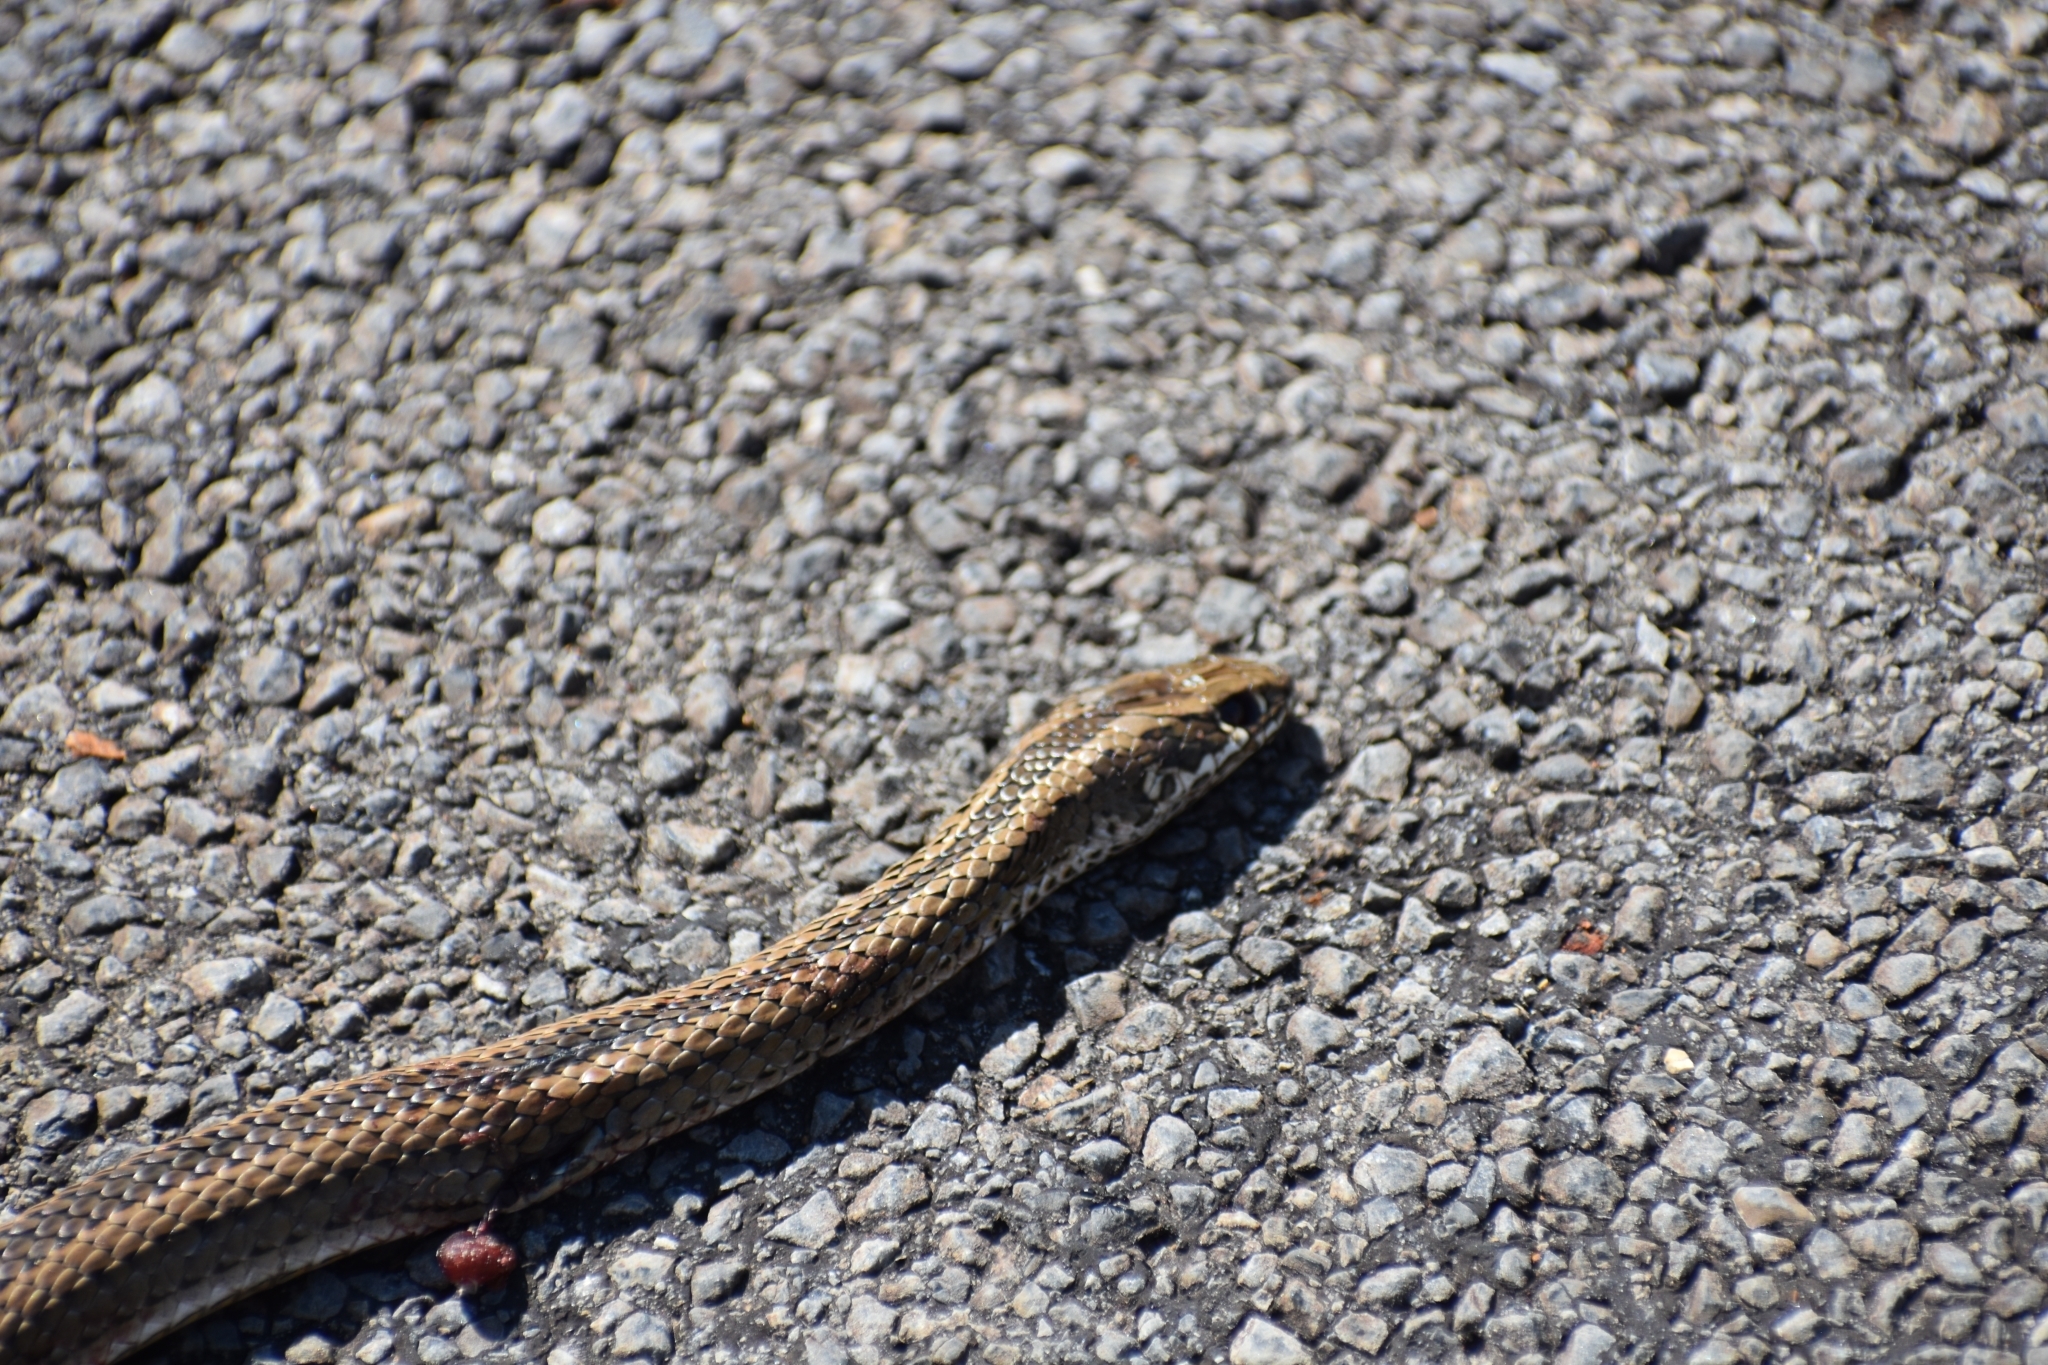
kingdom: Animalia
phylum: Chordata
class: Squamata
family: Psammophiidae
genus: Psammophis
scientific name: Psammophis crucifer
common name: Cross-marked grass snake
